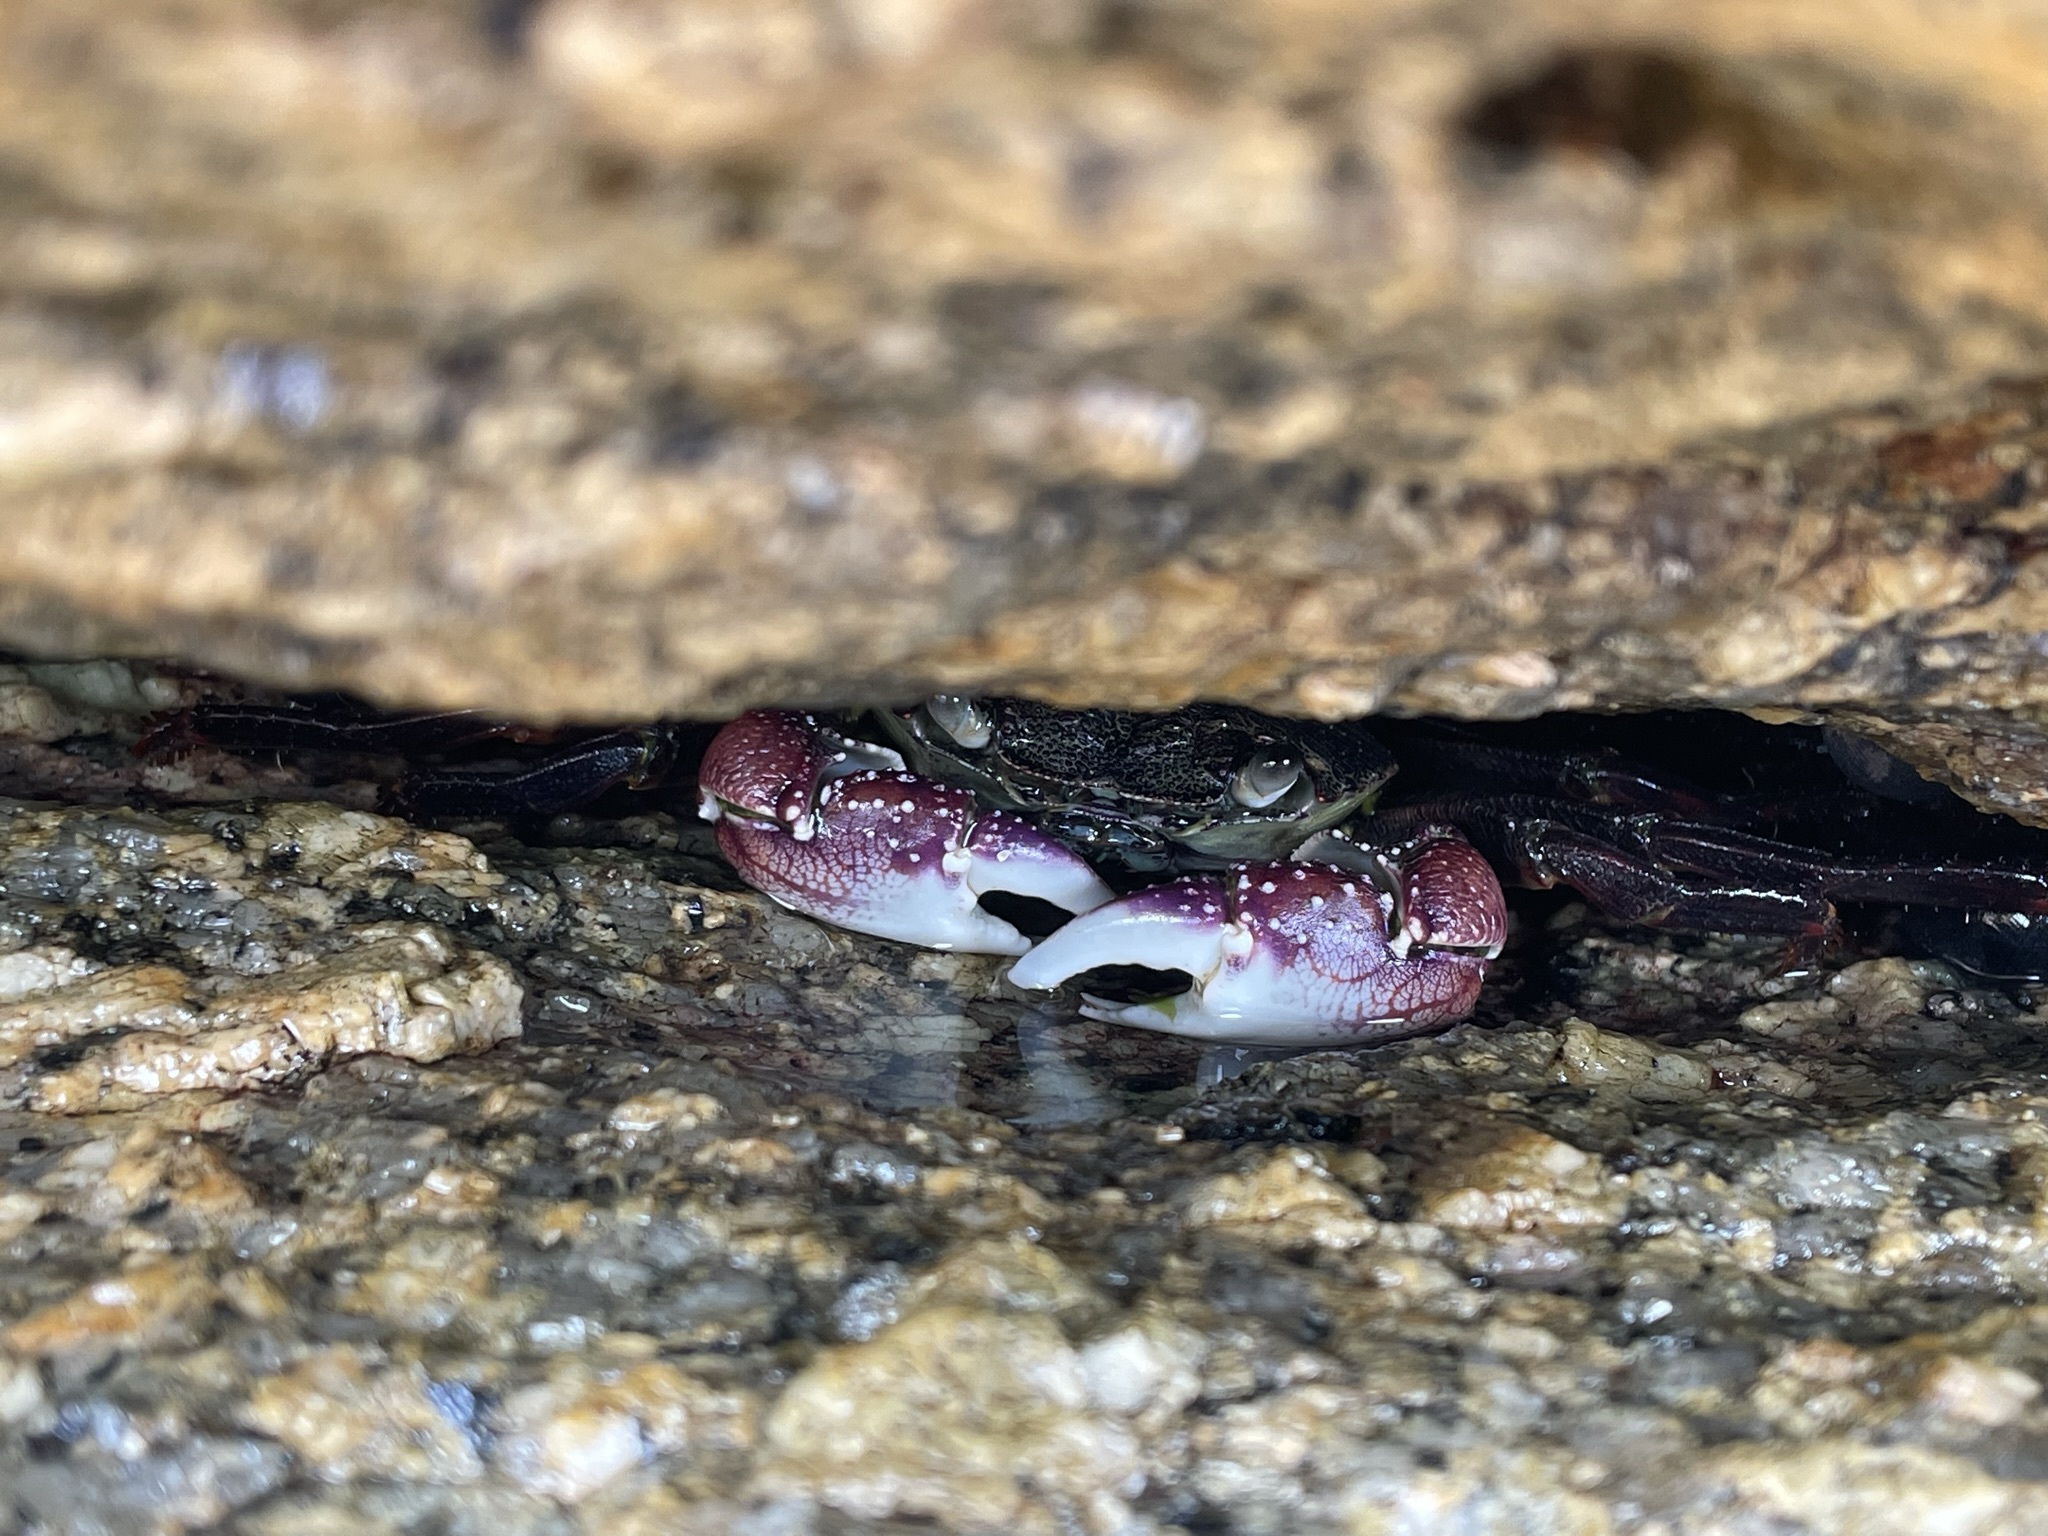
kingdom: Animalia
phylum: Arthropoda
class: Malacostraca
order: Decapoda
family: Grapsidae
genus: Leptograpsus
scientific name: Leptograpsus variegatus
